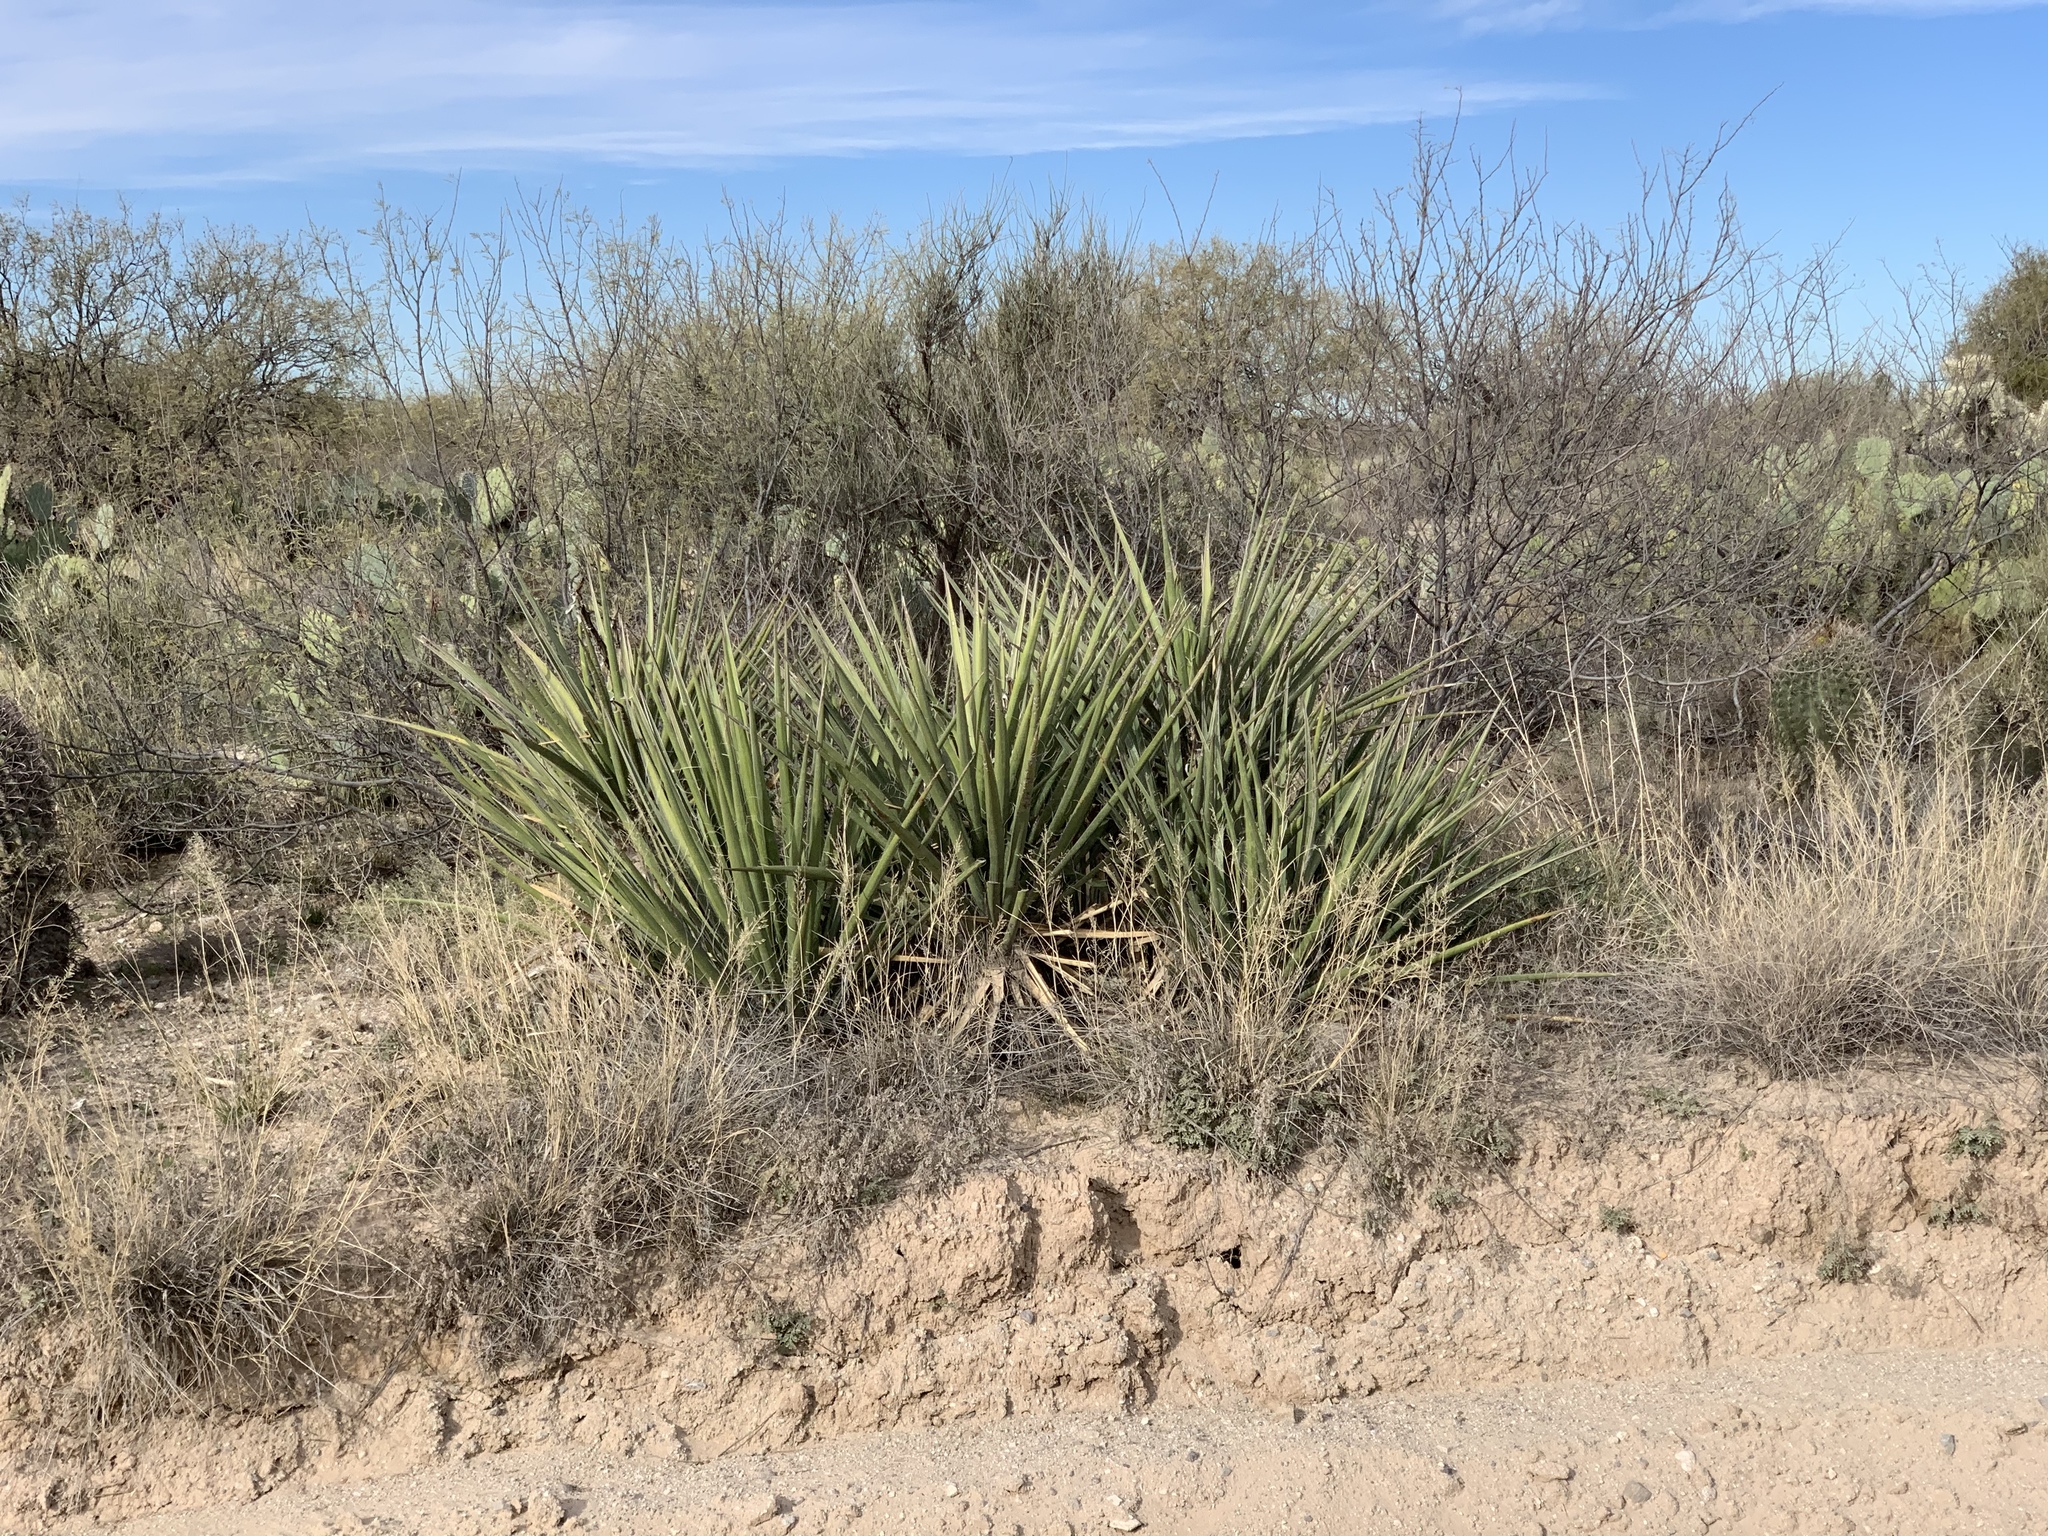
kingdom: Plantae
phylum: Tracheophyta
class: Liliopsida
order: Asparagales
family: Asparagaceae
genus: Yucca
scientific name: Yucca baccata
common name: Banana yucca
